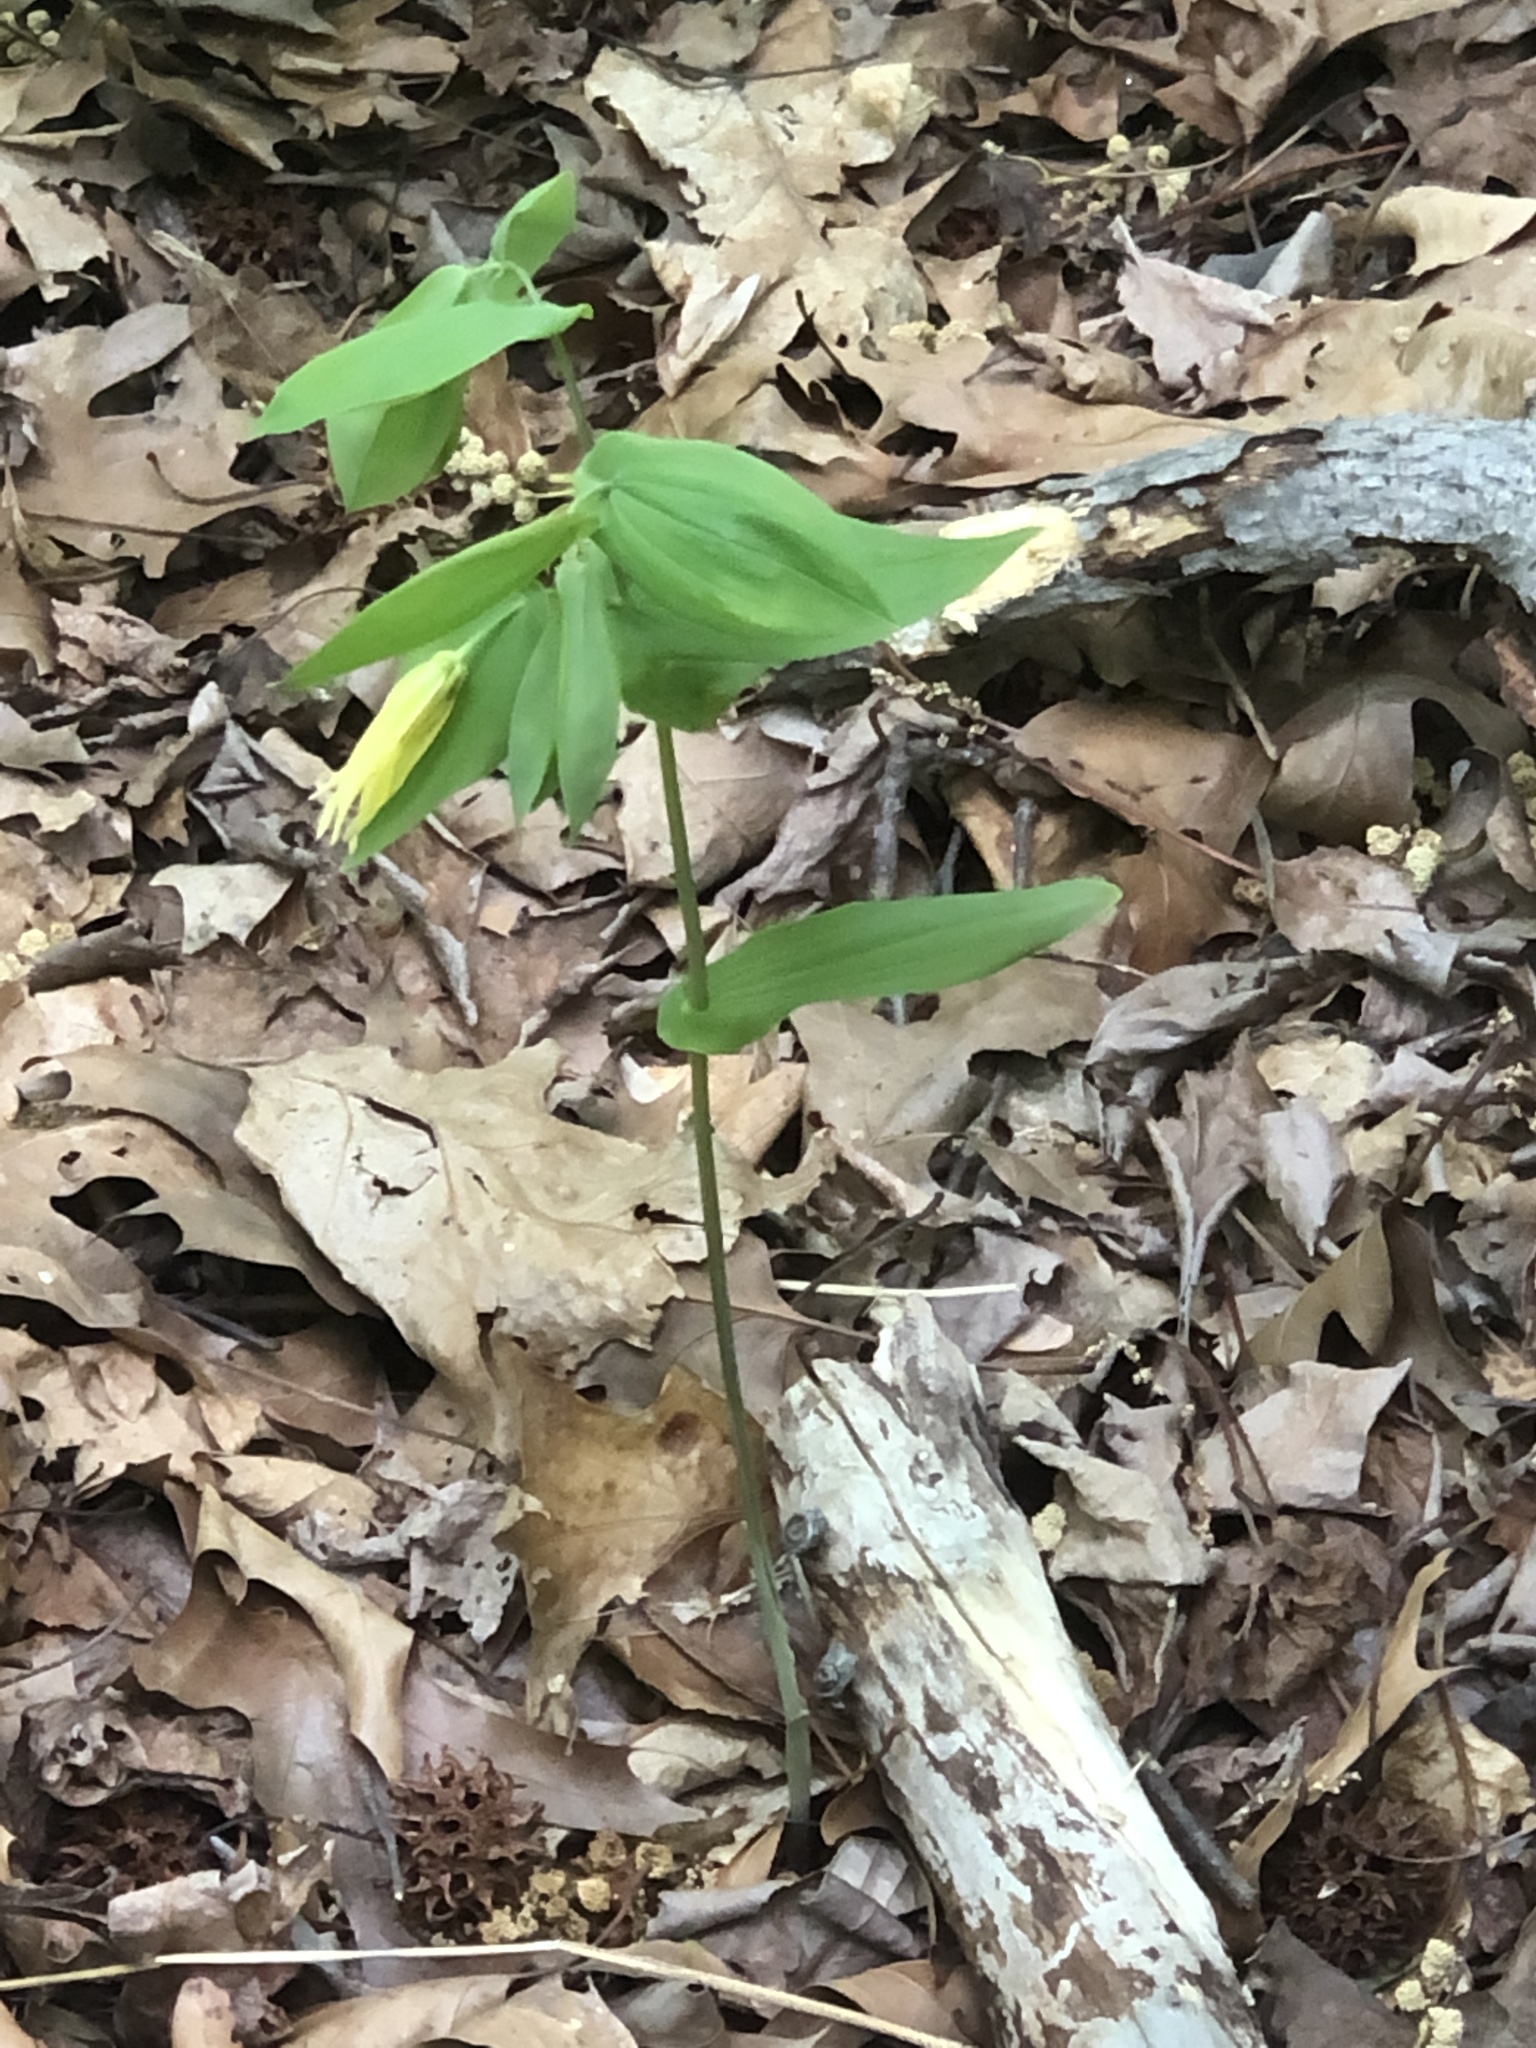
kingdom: Plantae
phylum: Tracheophyta
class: Liliopsida
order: Liliales
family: Colchicaceae
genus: Uvularia
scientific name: Uvularia grandiflora
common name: Bellwort
